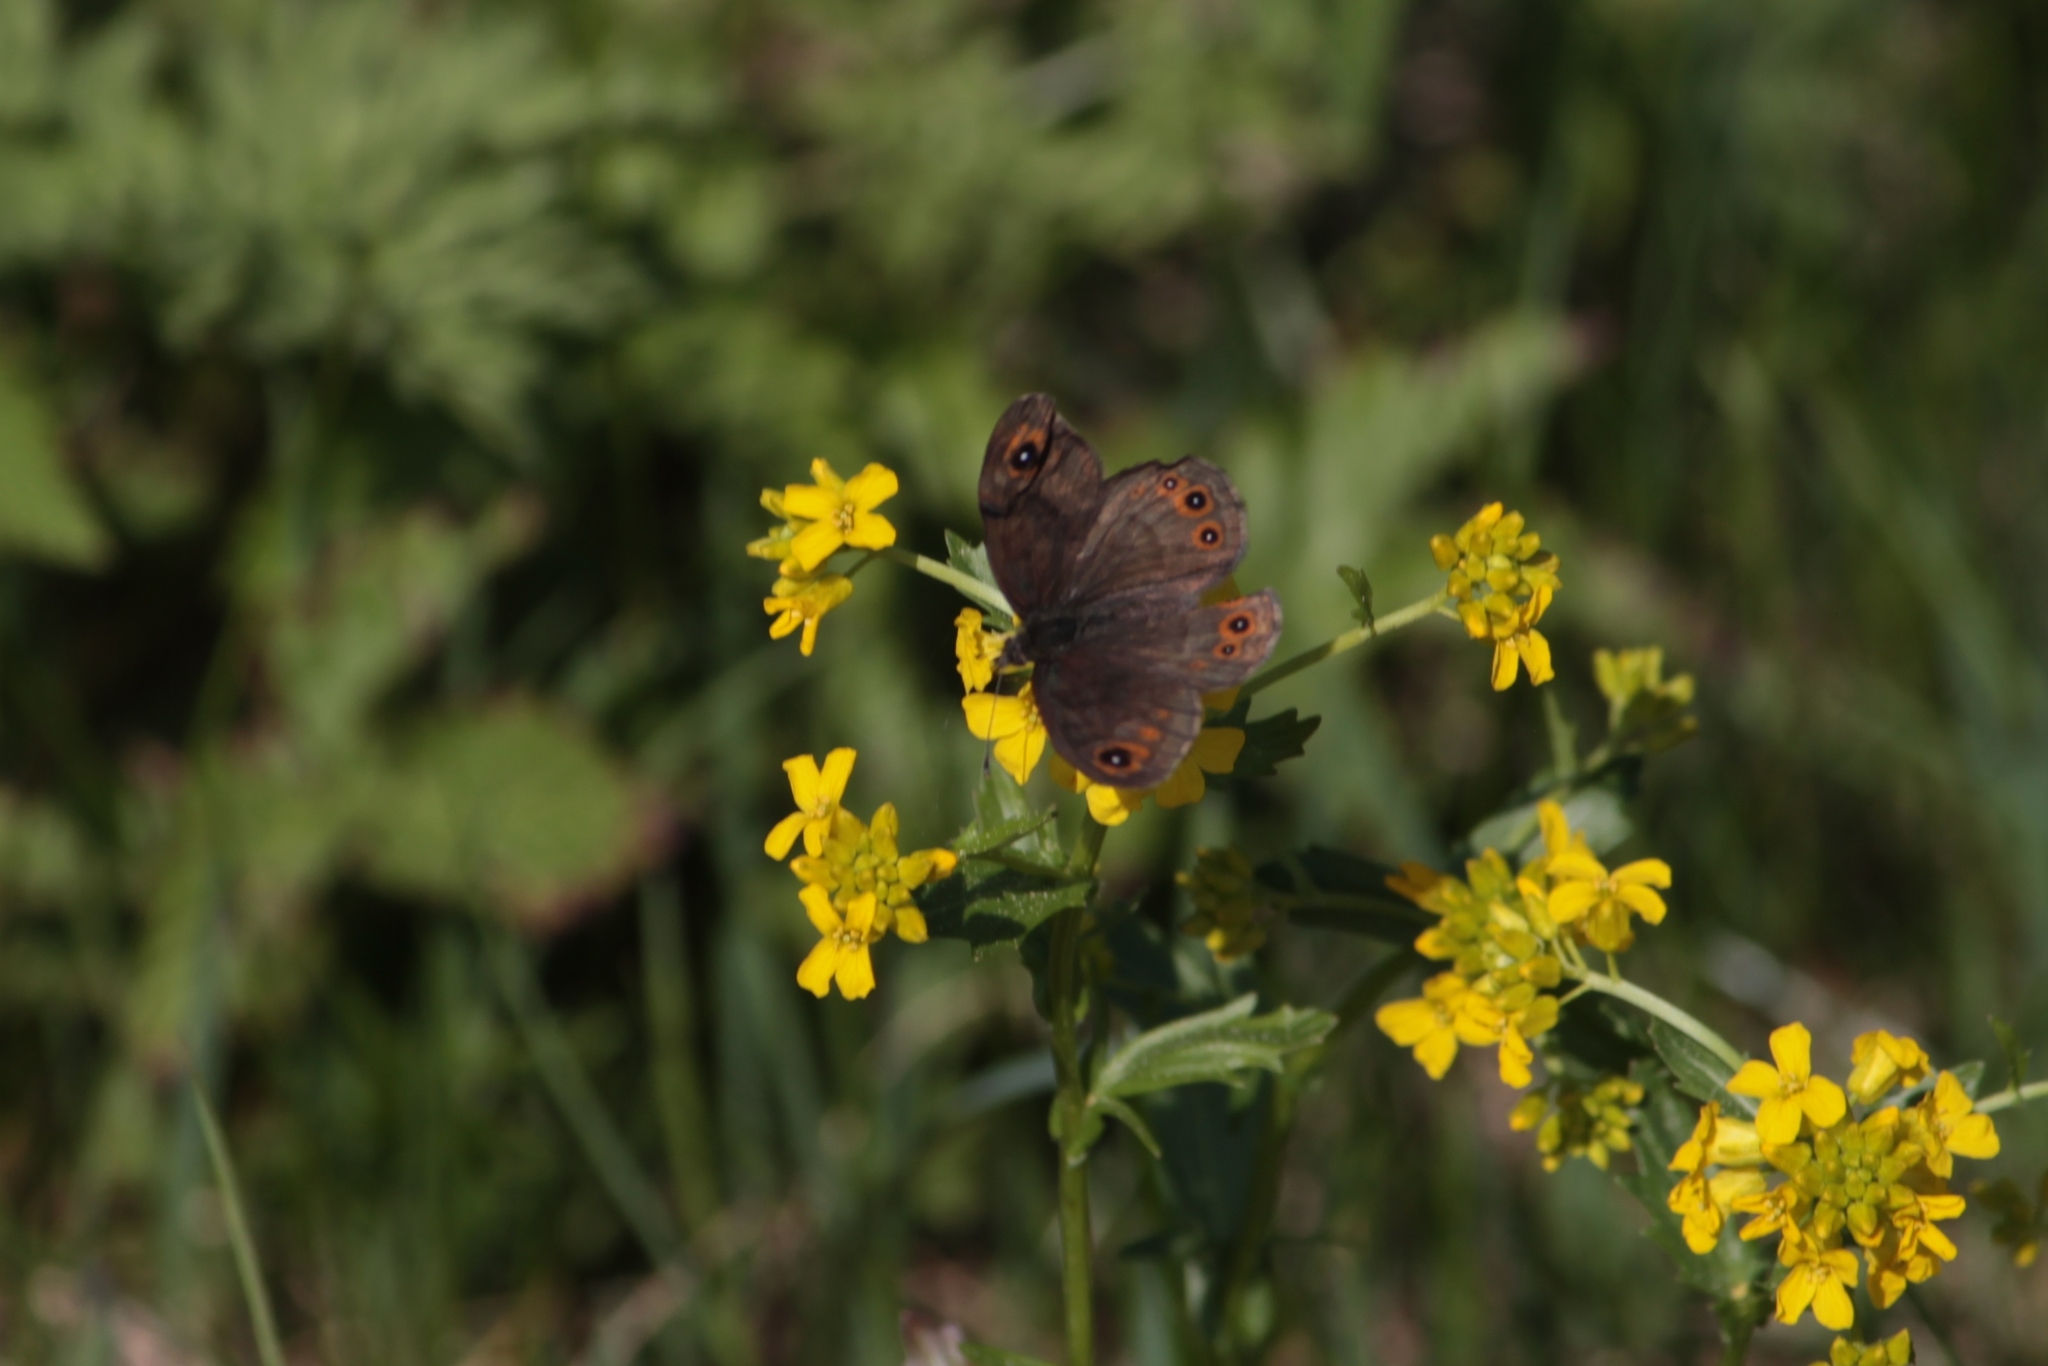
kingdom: Animalia
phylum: Arthropoda
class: Insecta
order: Lepidoptera
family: Nymphalidae
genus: Pararge
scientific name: Pararge petropolitana
